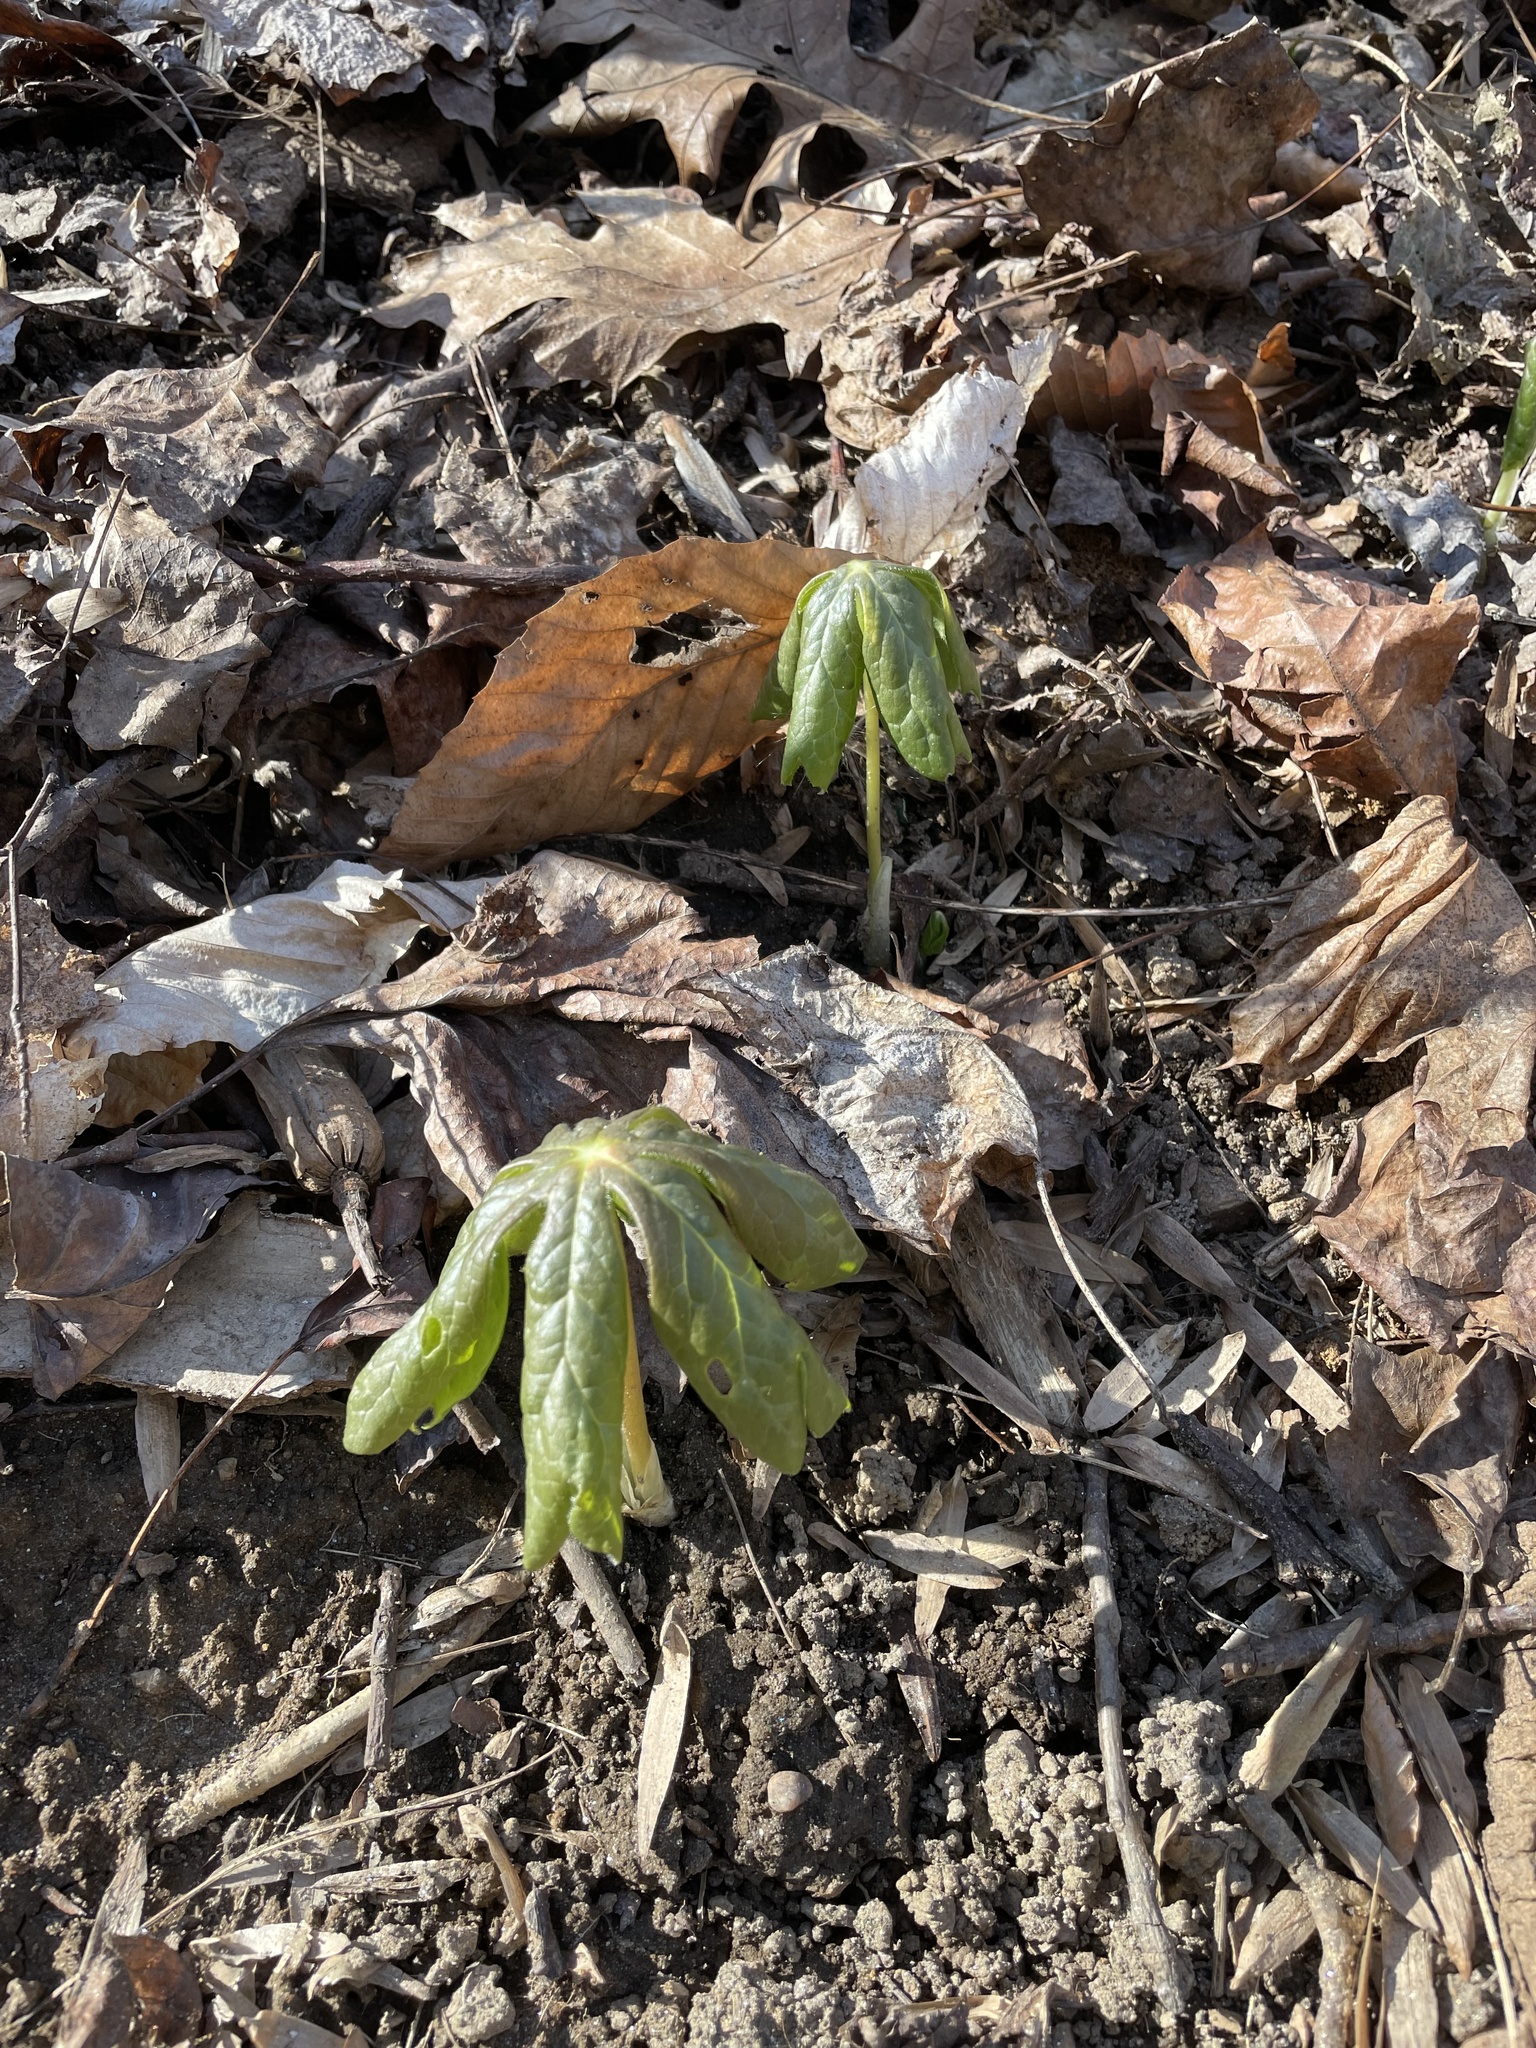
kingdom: Plantae
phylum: Tracheophyta
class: Magnoliopsida
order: Ranunculales
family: Berberidaceae
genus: Podophyllum
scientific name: Podophyllum peltatum
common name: Wild mandrake
